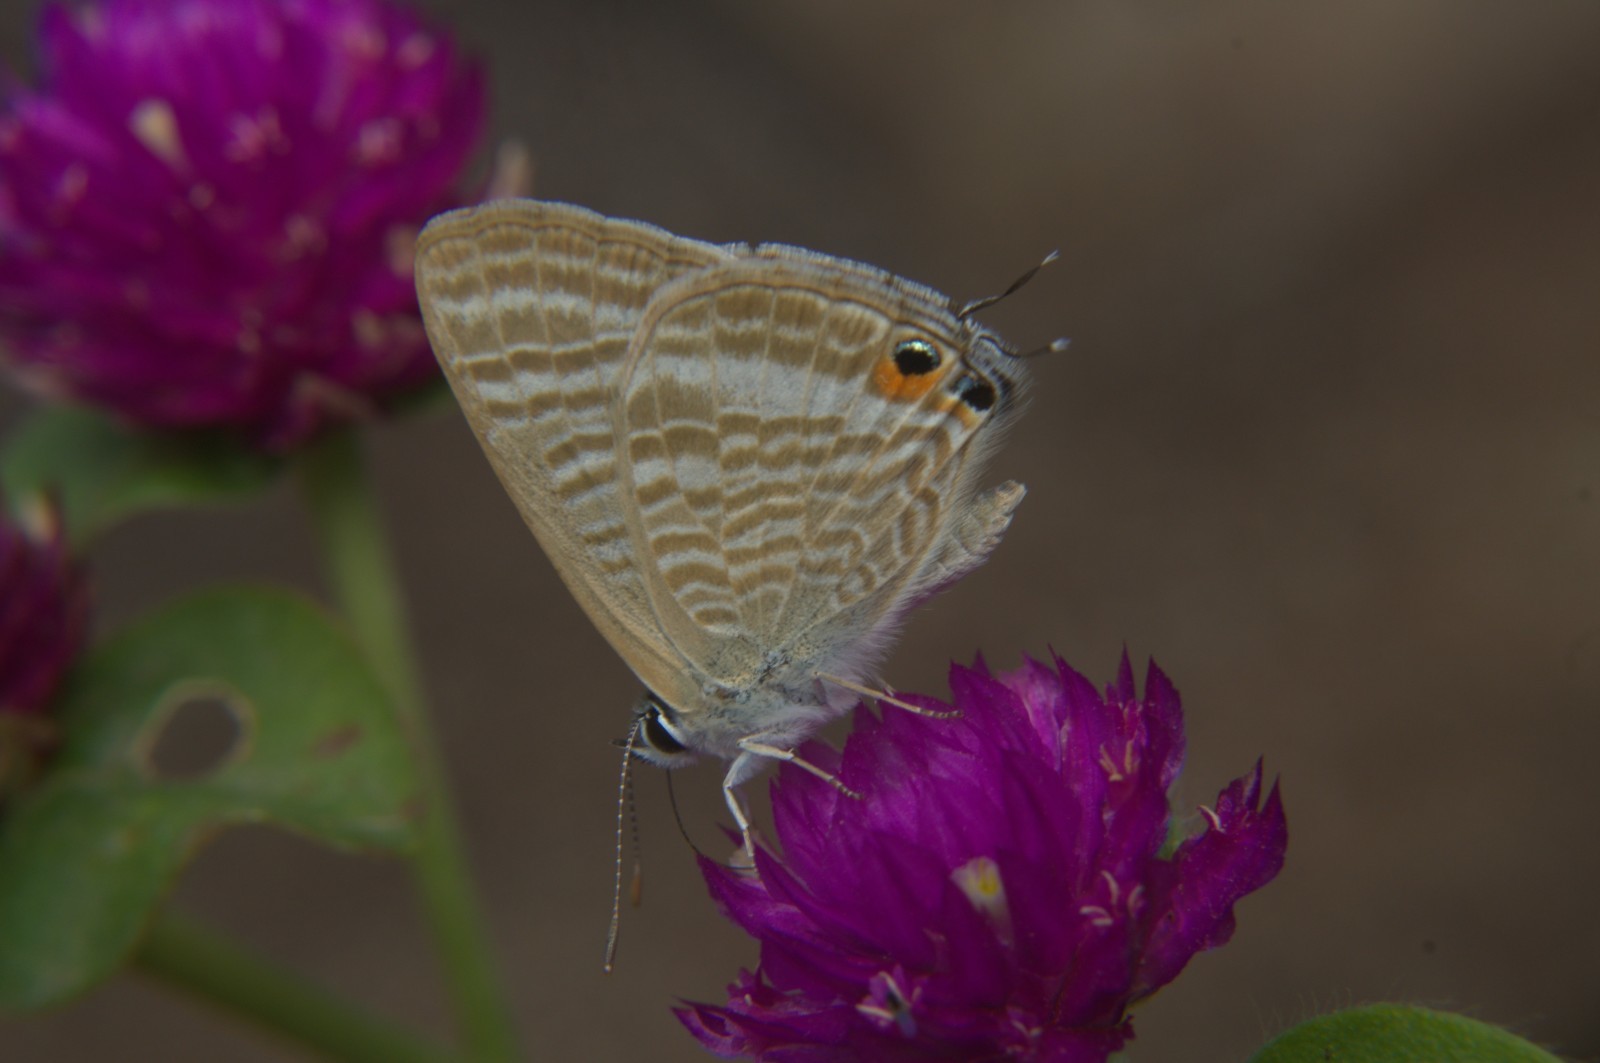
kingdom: Animalia
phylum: Arthropoda
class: Insecta
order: Lepidoptera
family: Lycaenidae
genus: Lampides
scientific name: Lampides boeticus
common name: Long-tailed blue
